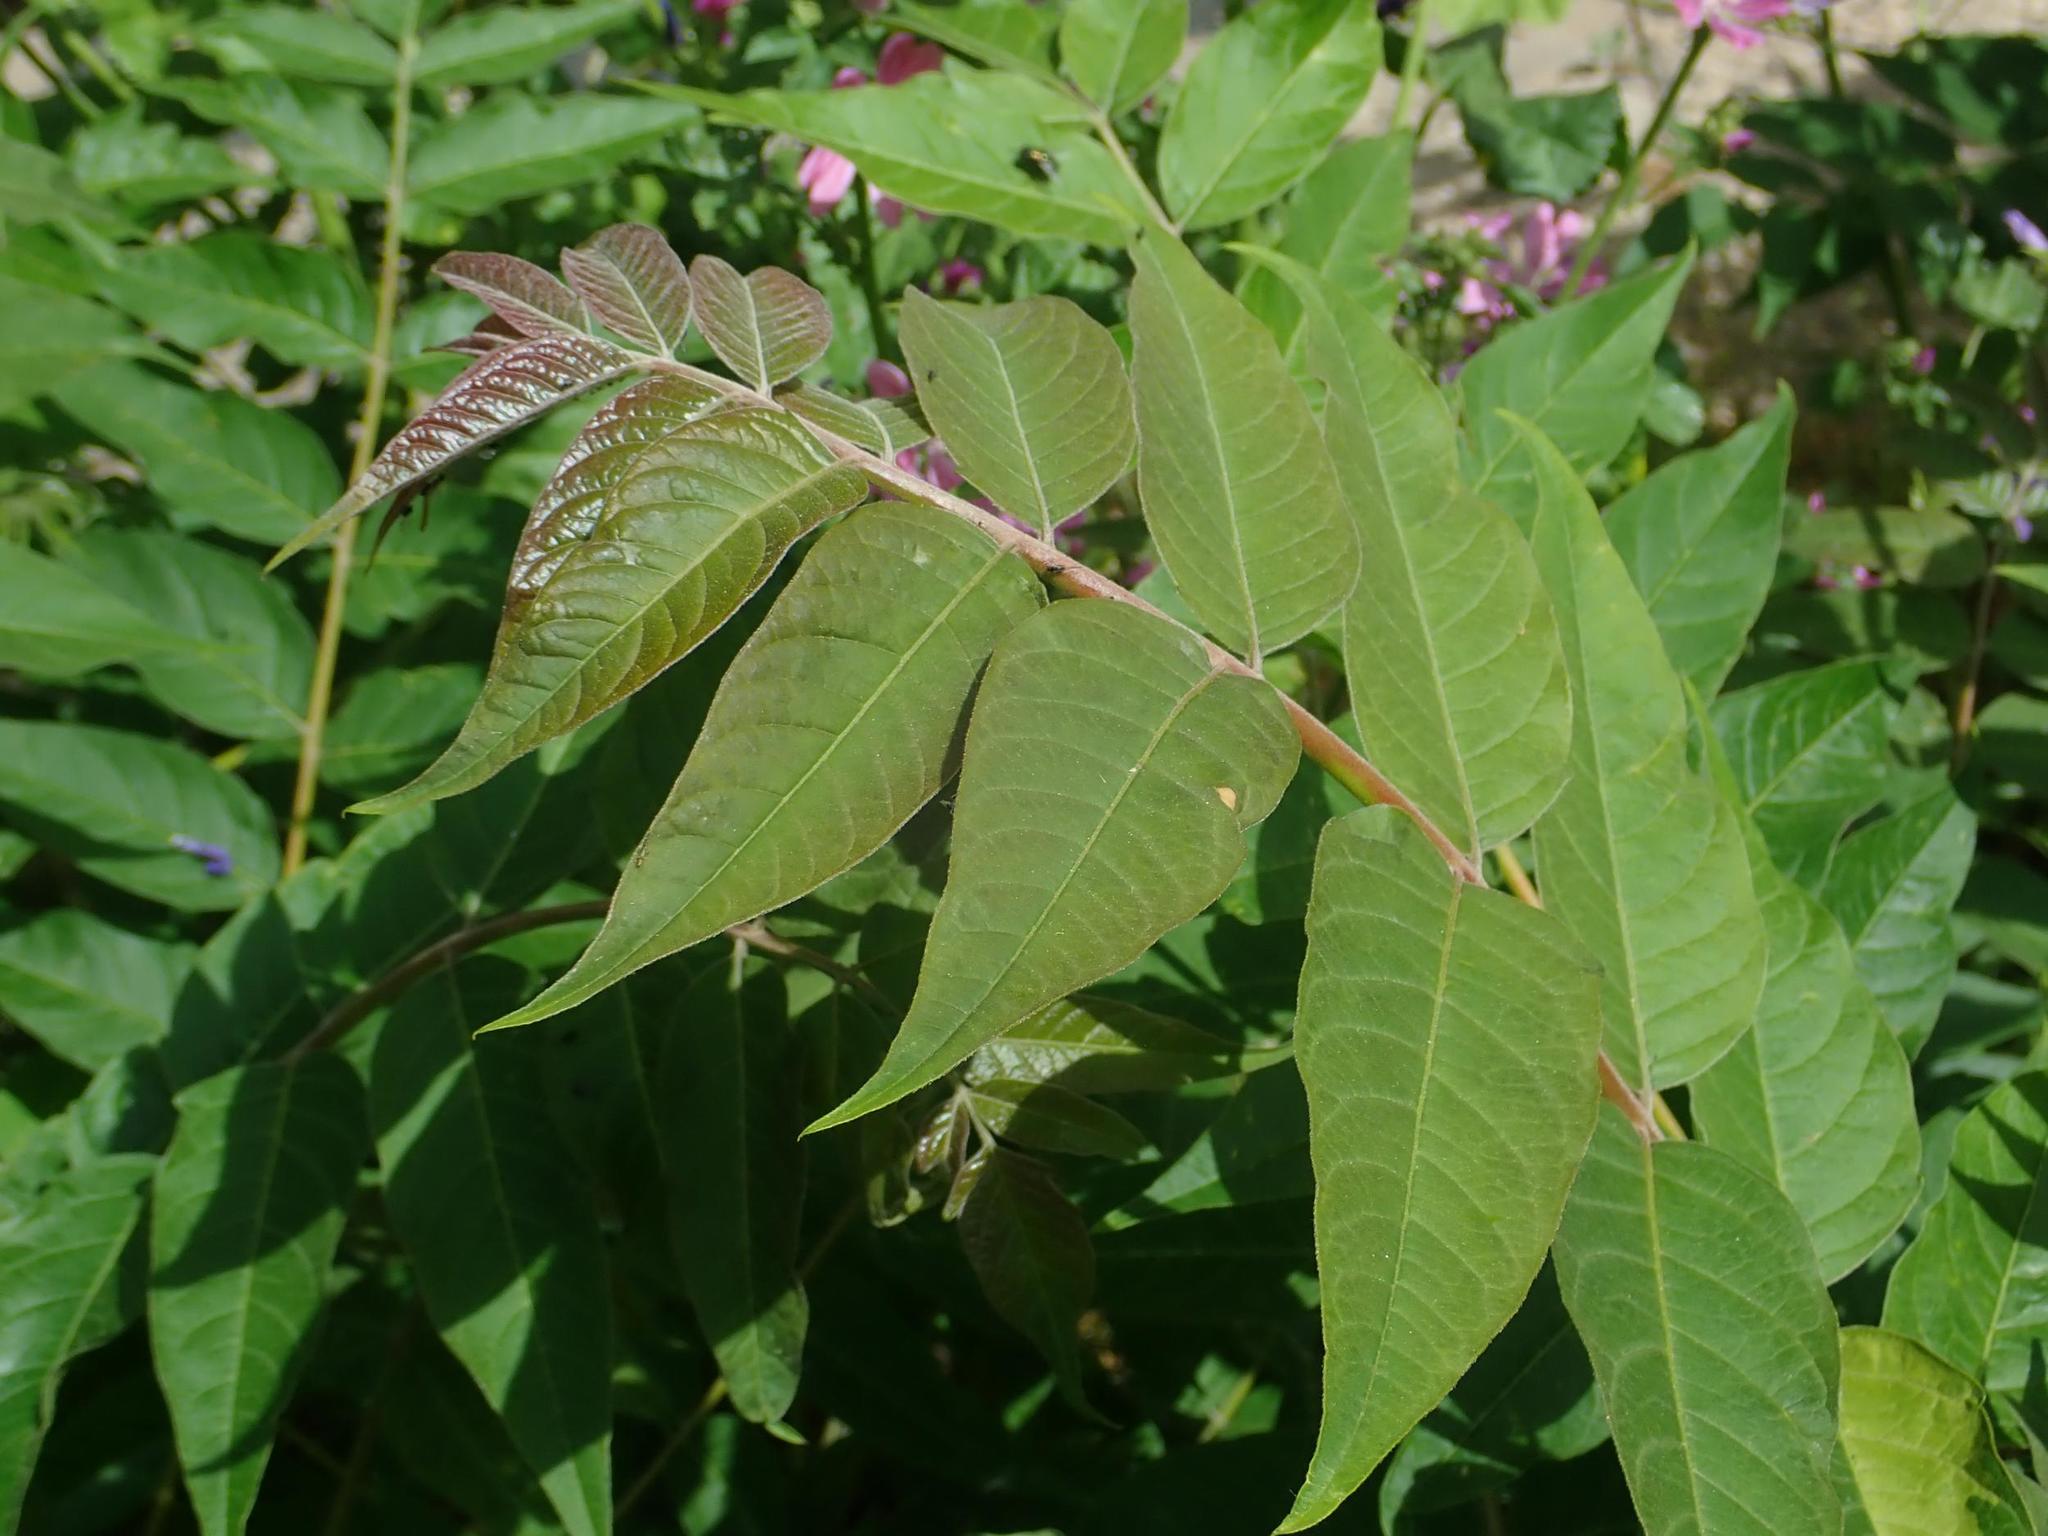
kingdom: Plantae
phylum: Tracheophyta
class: Magnoliopsida
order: Sapindales
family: Simaroubaceae
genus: Ailanthus
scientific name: Ailanthus altissima
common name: Tree-of-heaven
